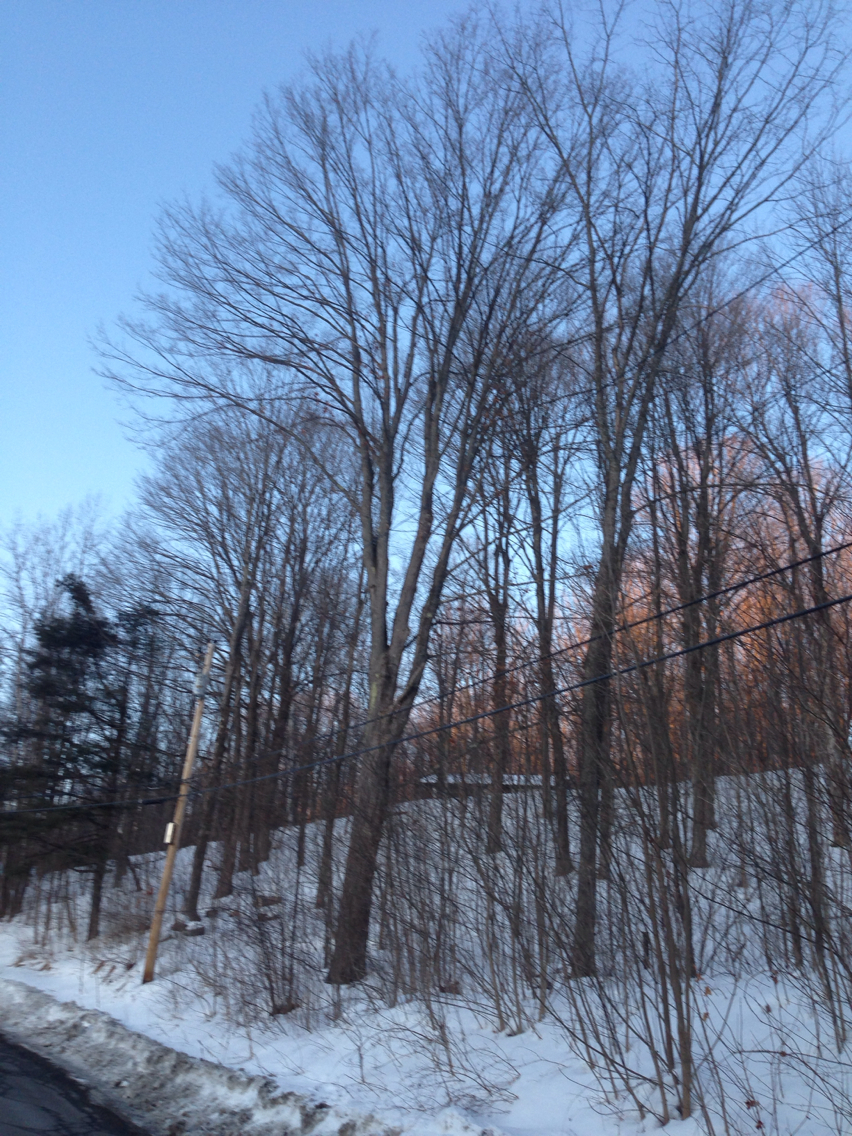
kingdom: Plantae
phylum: Tracheophyta
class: Magnoliopsida
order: Sapindales
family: Sapindaceae
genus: Acer
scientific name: Acer saccharum
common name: Sugar maple
